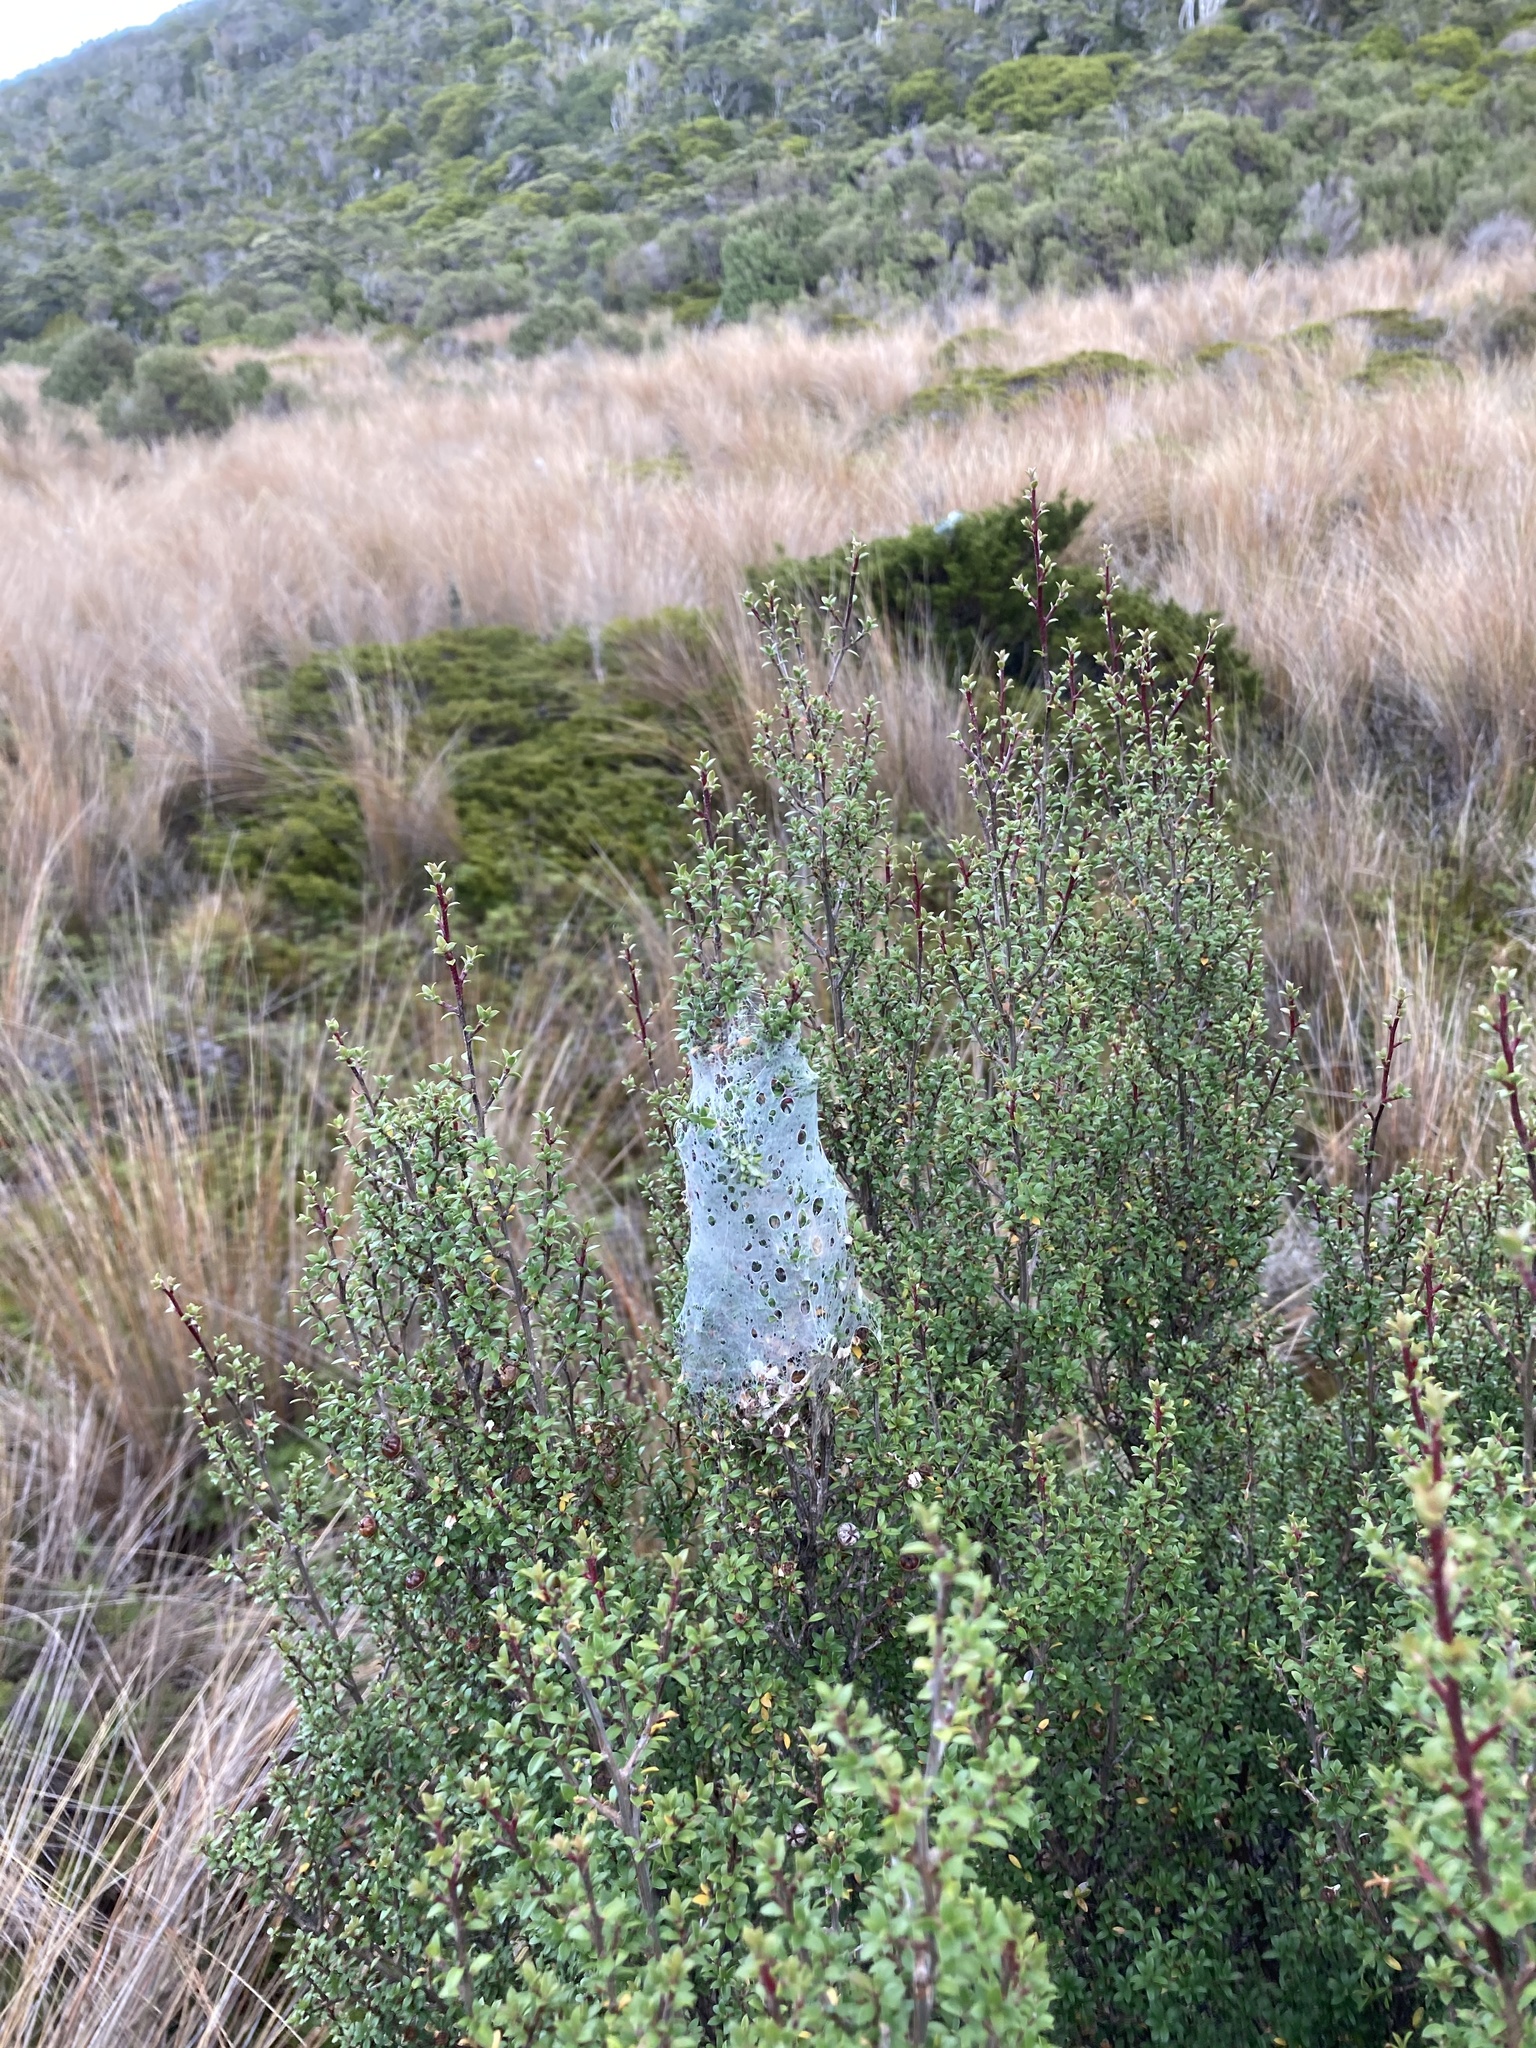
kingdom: Plantae
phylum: Tracheophyta
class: Magnoliopsida
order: Myrtales
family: Myrtaceae
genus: Leptospermum
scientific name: Leptospermum scoparium
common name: Broom tea-tree
